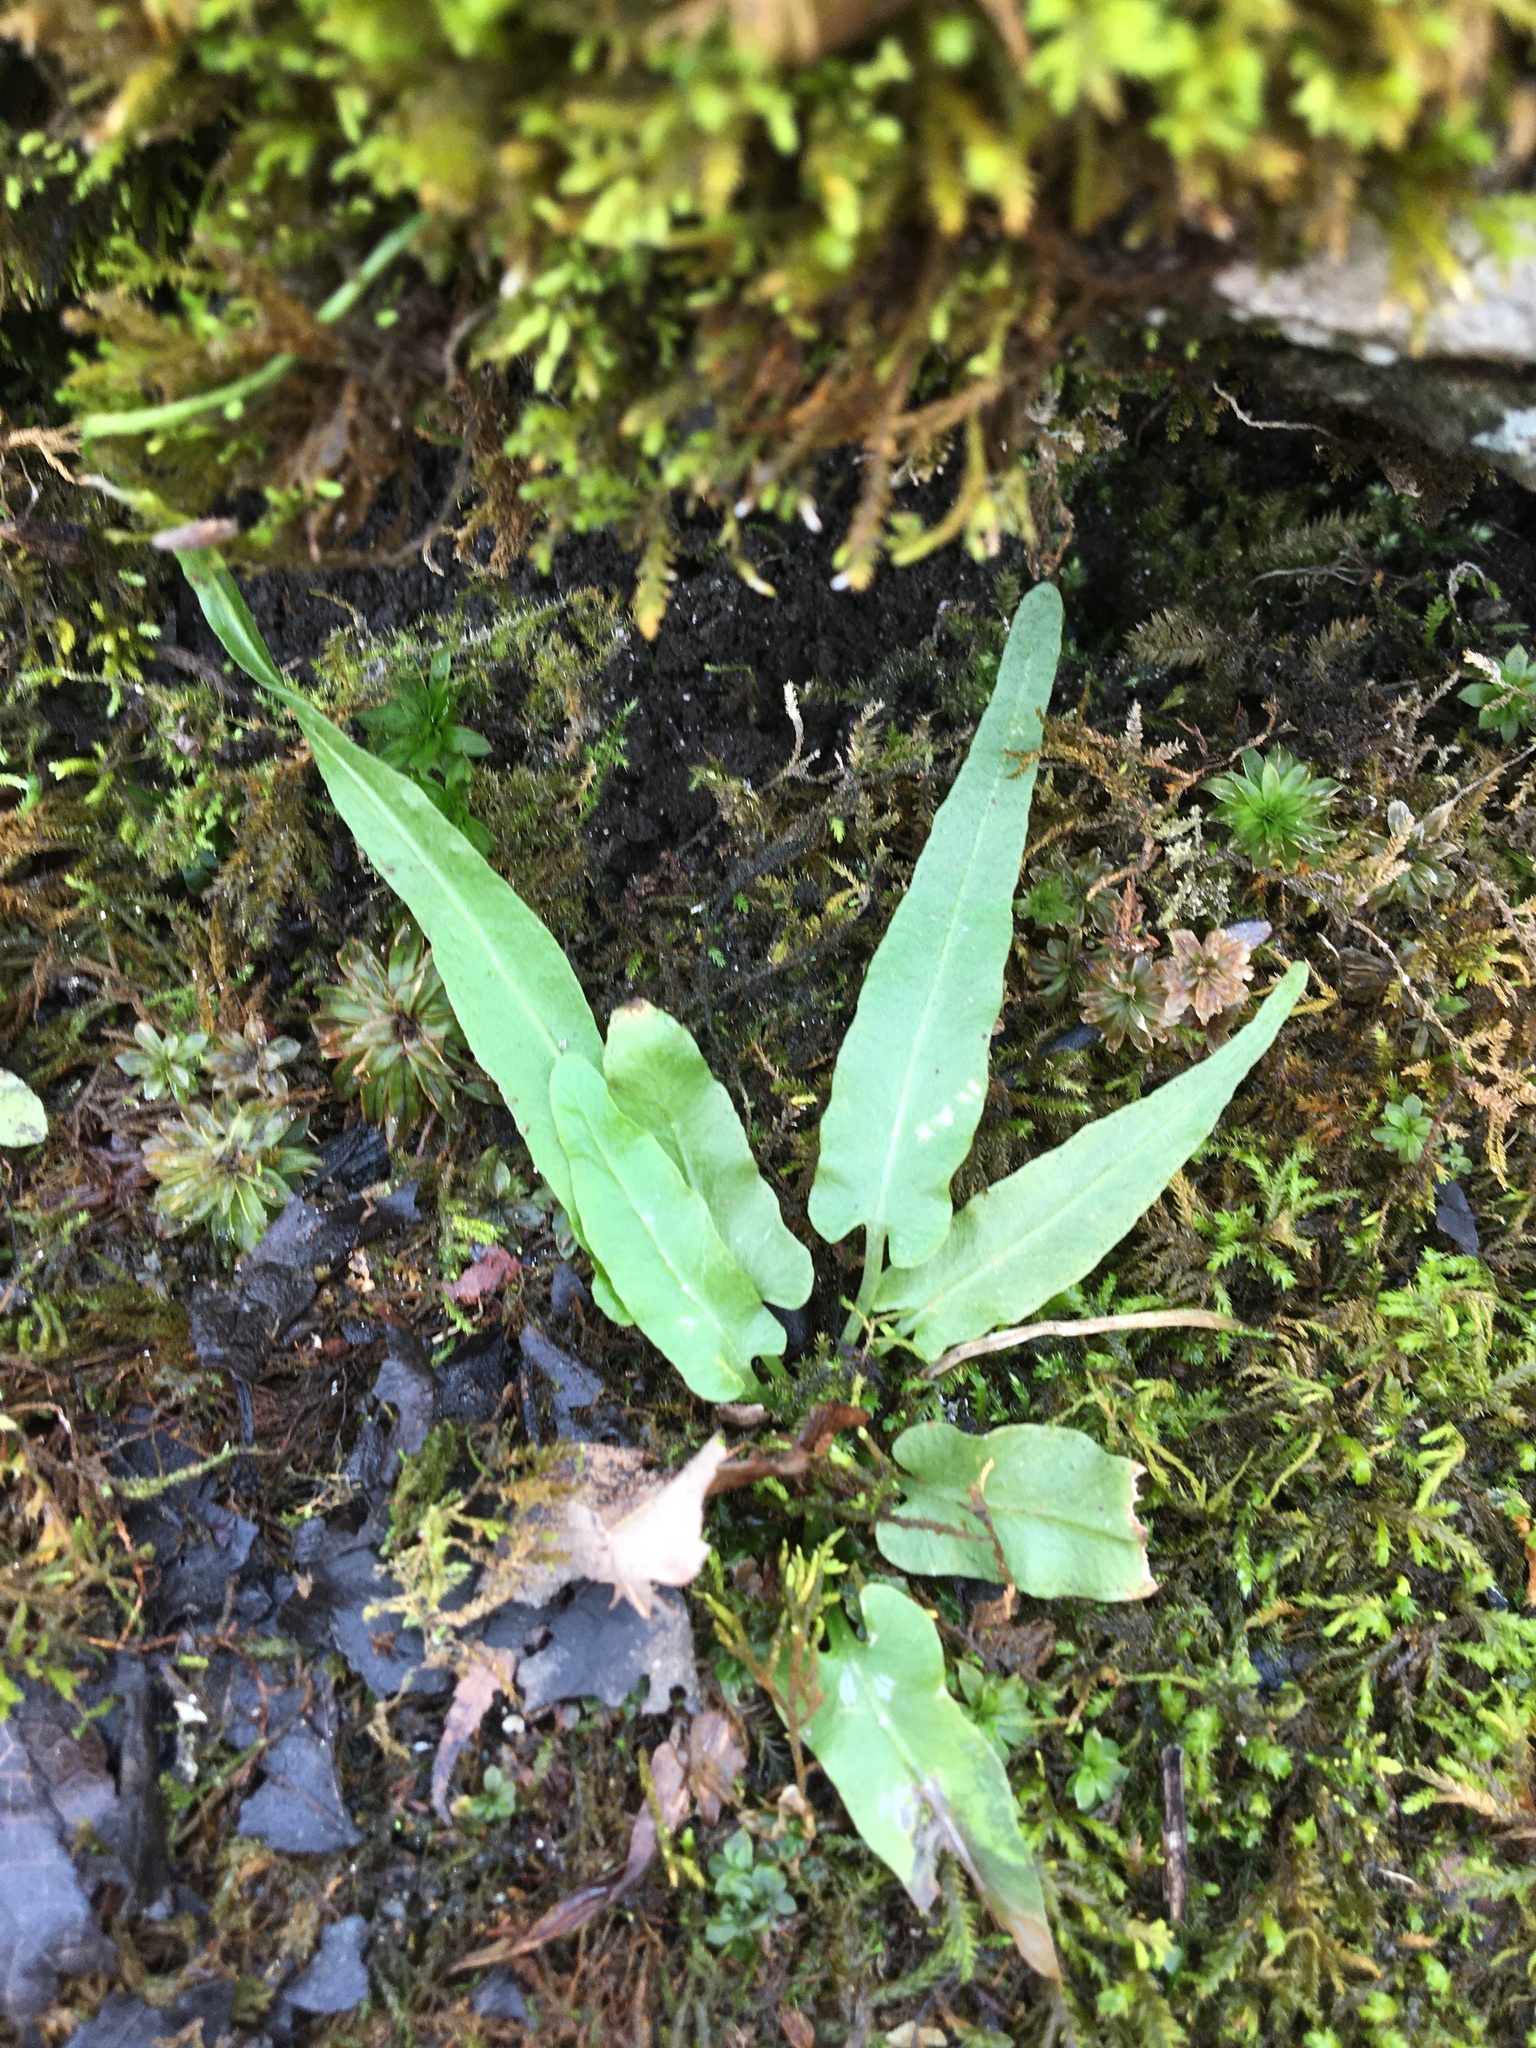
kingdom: Plantae
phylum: Tracheophyta
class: Polypodiopsida
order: Polypodiales
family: Aspleniaceae
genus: Asplenium
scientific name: Asplenium rhizophyllum
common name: Walking fern
